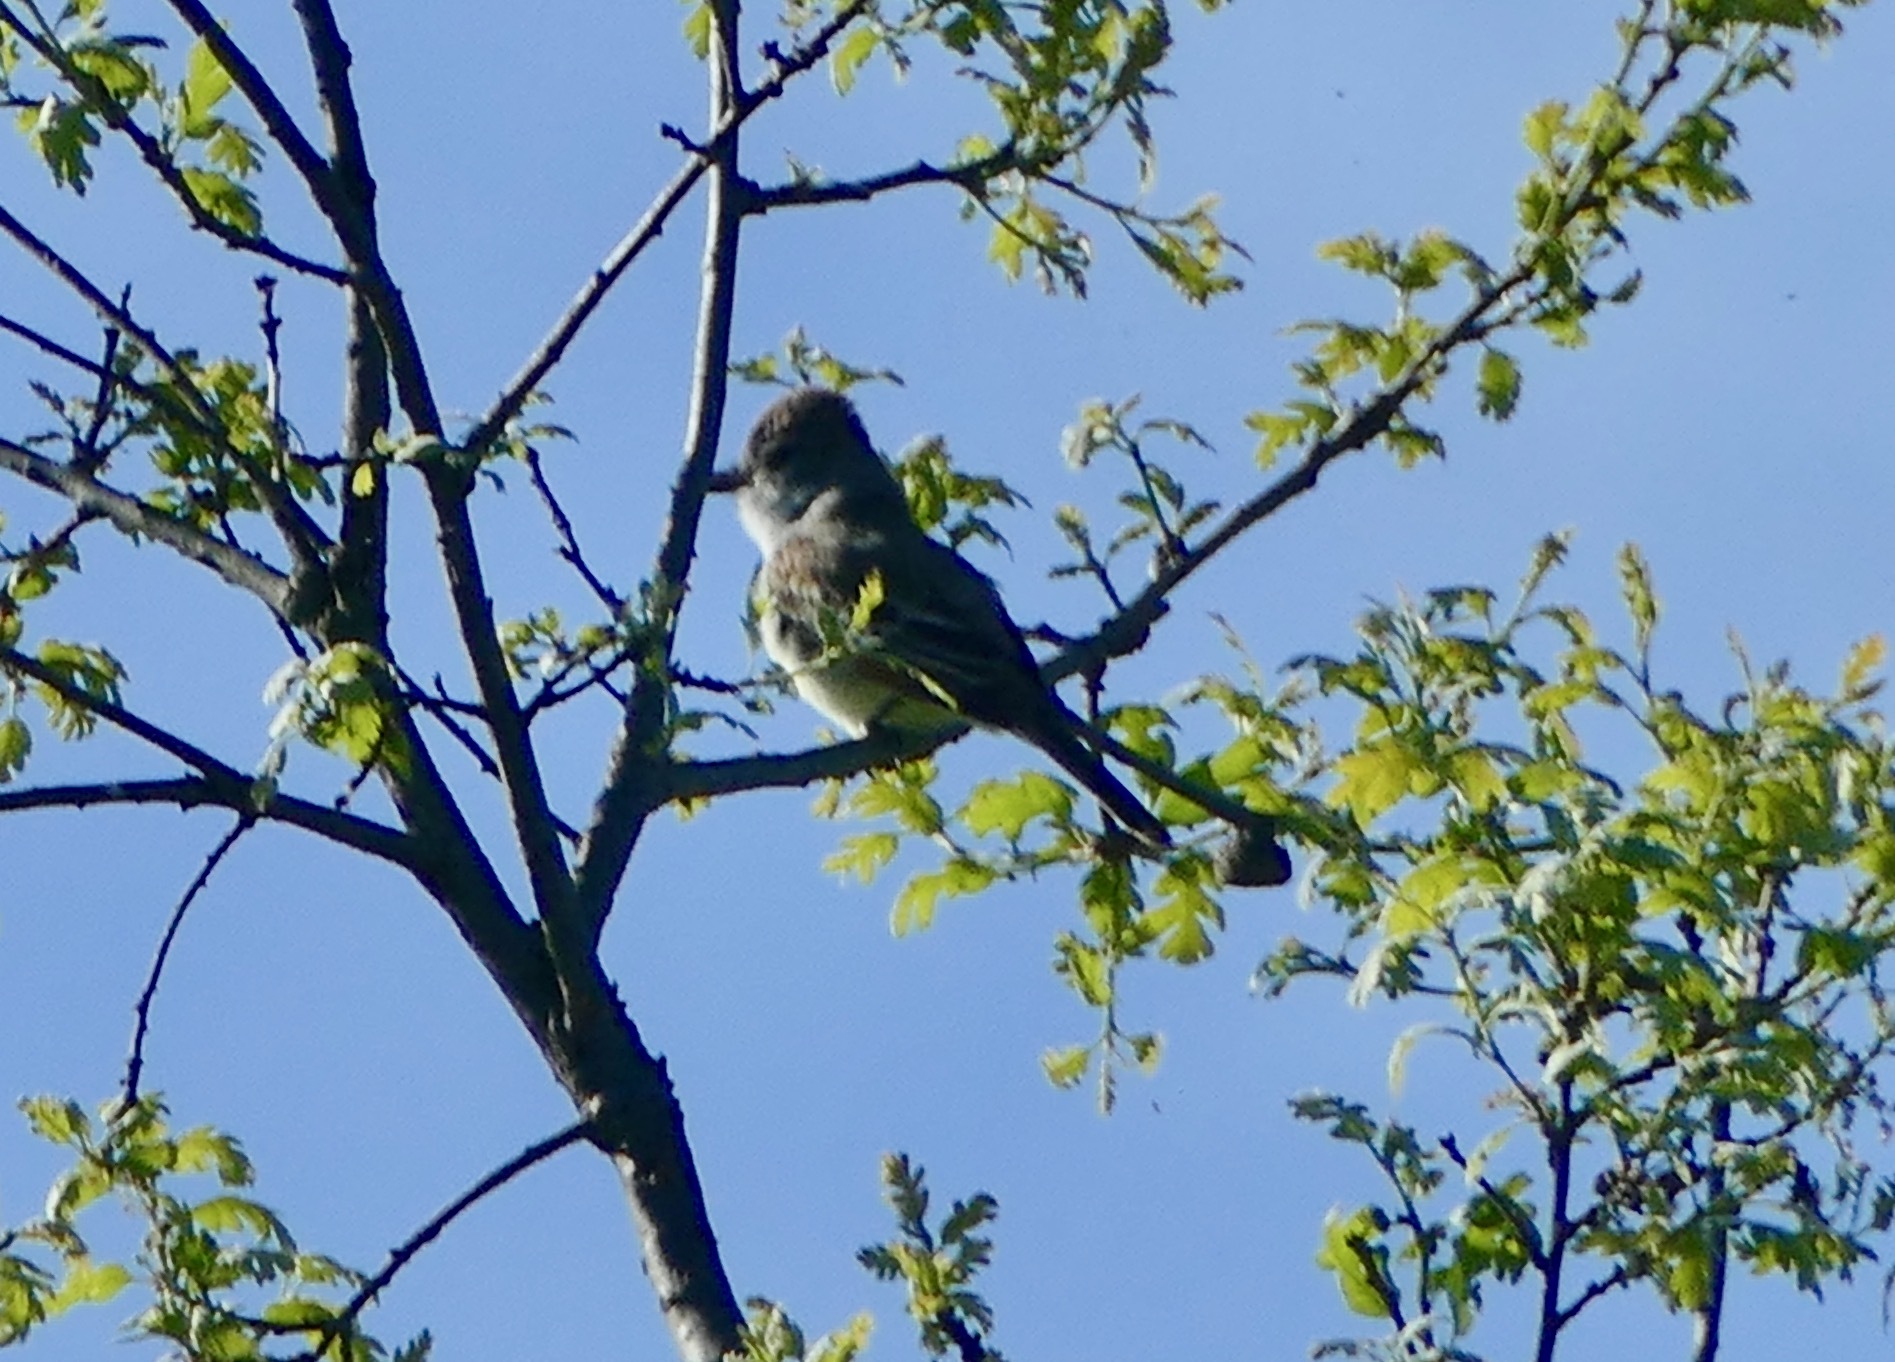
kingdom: Animalia
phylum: Chordata
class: Aves
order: Passeriformes
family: Tyrannidae
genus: Myiarchus
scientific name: Myiarchus cinerascens
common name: Ash-throated flycatcher
